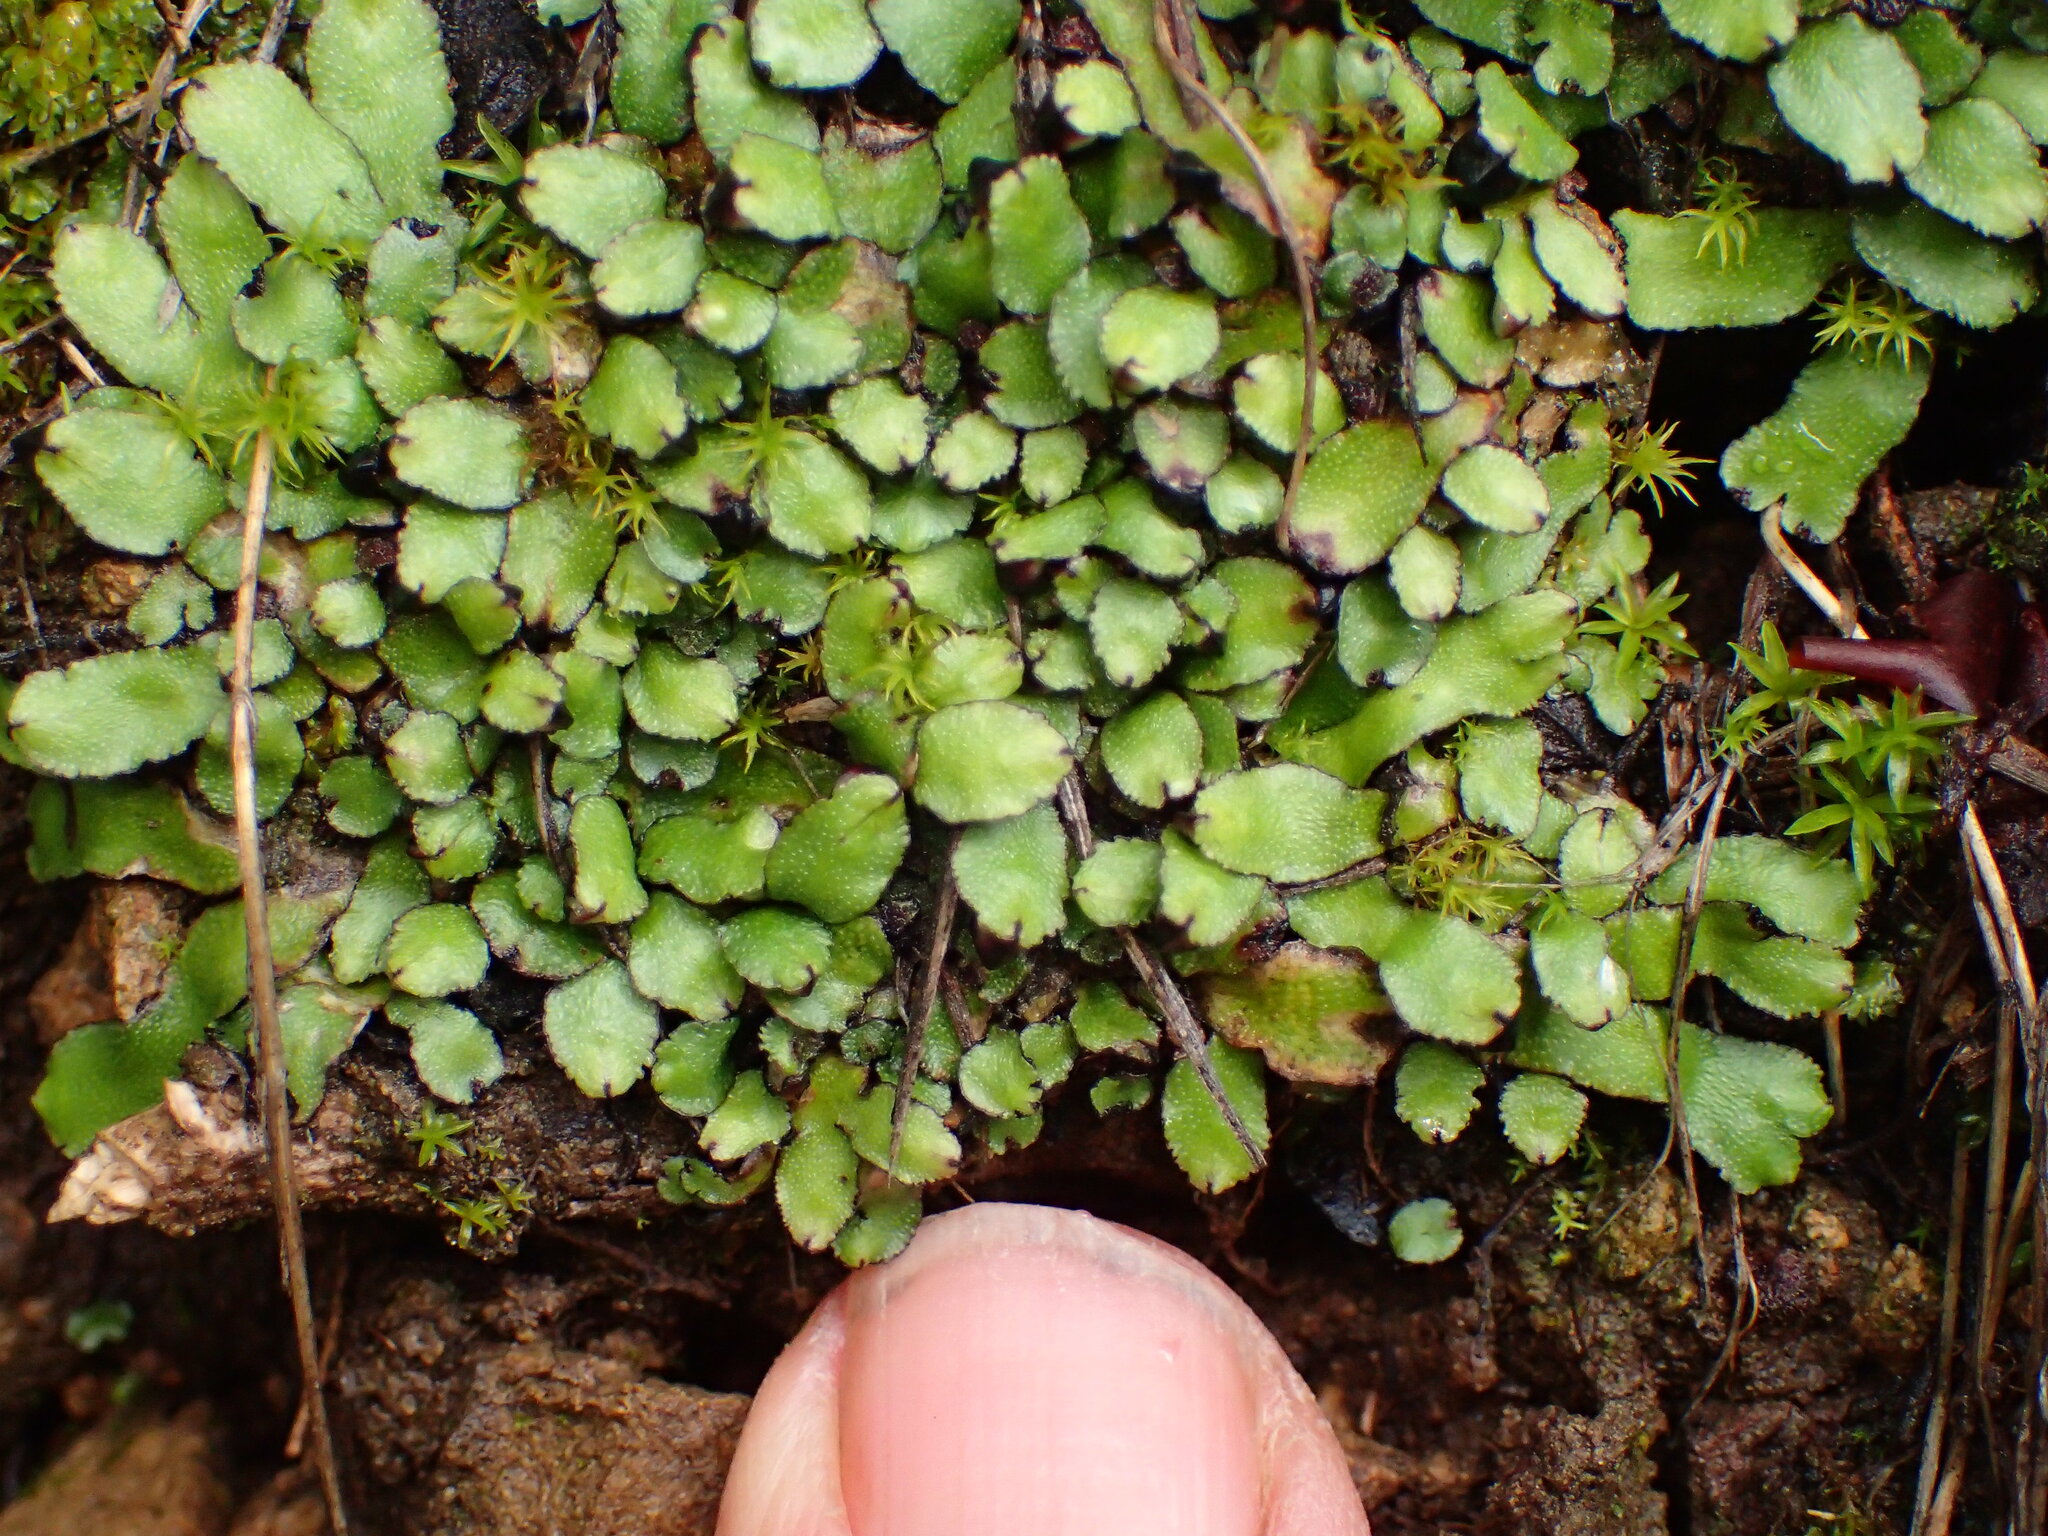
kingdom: Plantae
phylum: Marchantiophyta
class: Marchantiopsida
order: Marchantiales
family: Targioniaceae
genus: Targionia
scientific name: Targionia hypophylla
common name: Orobus-seed liverwort
